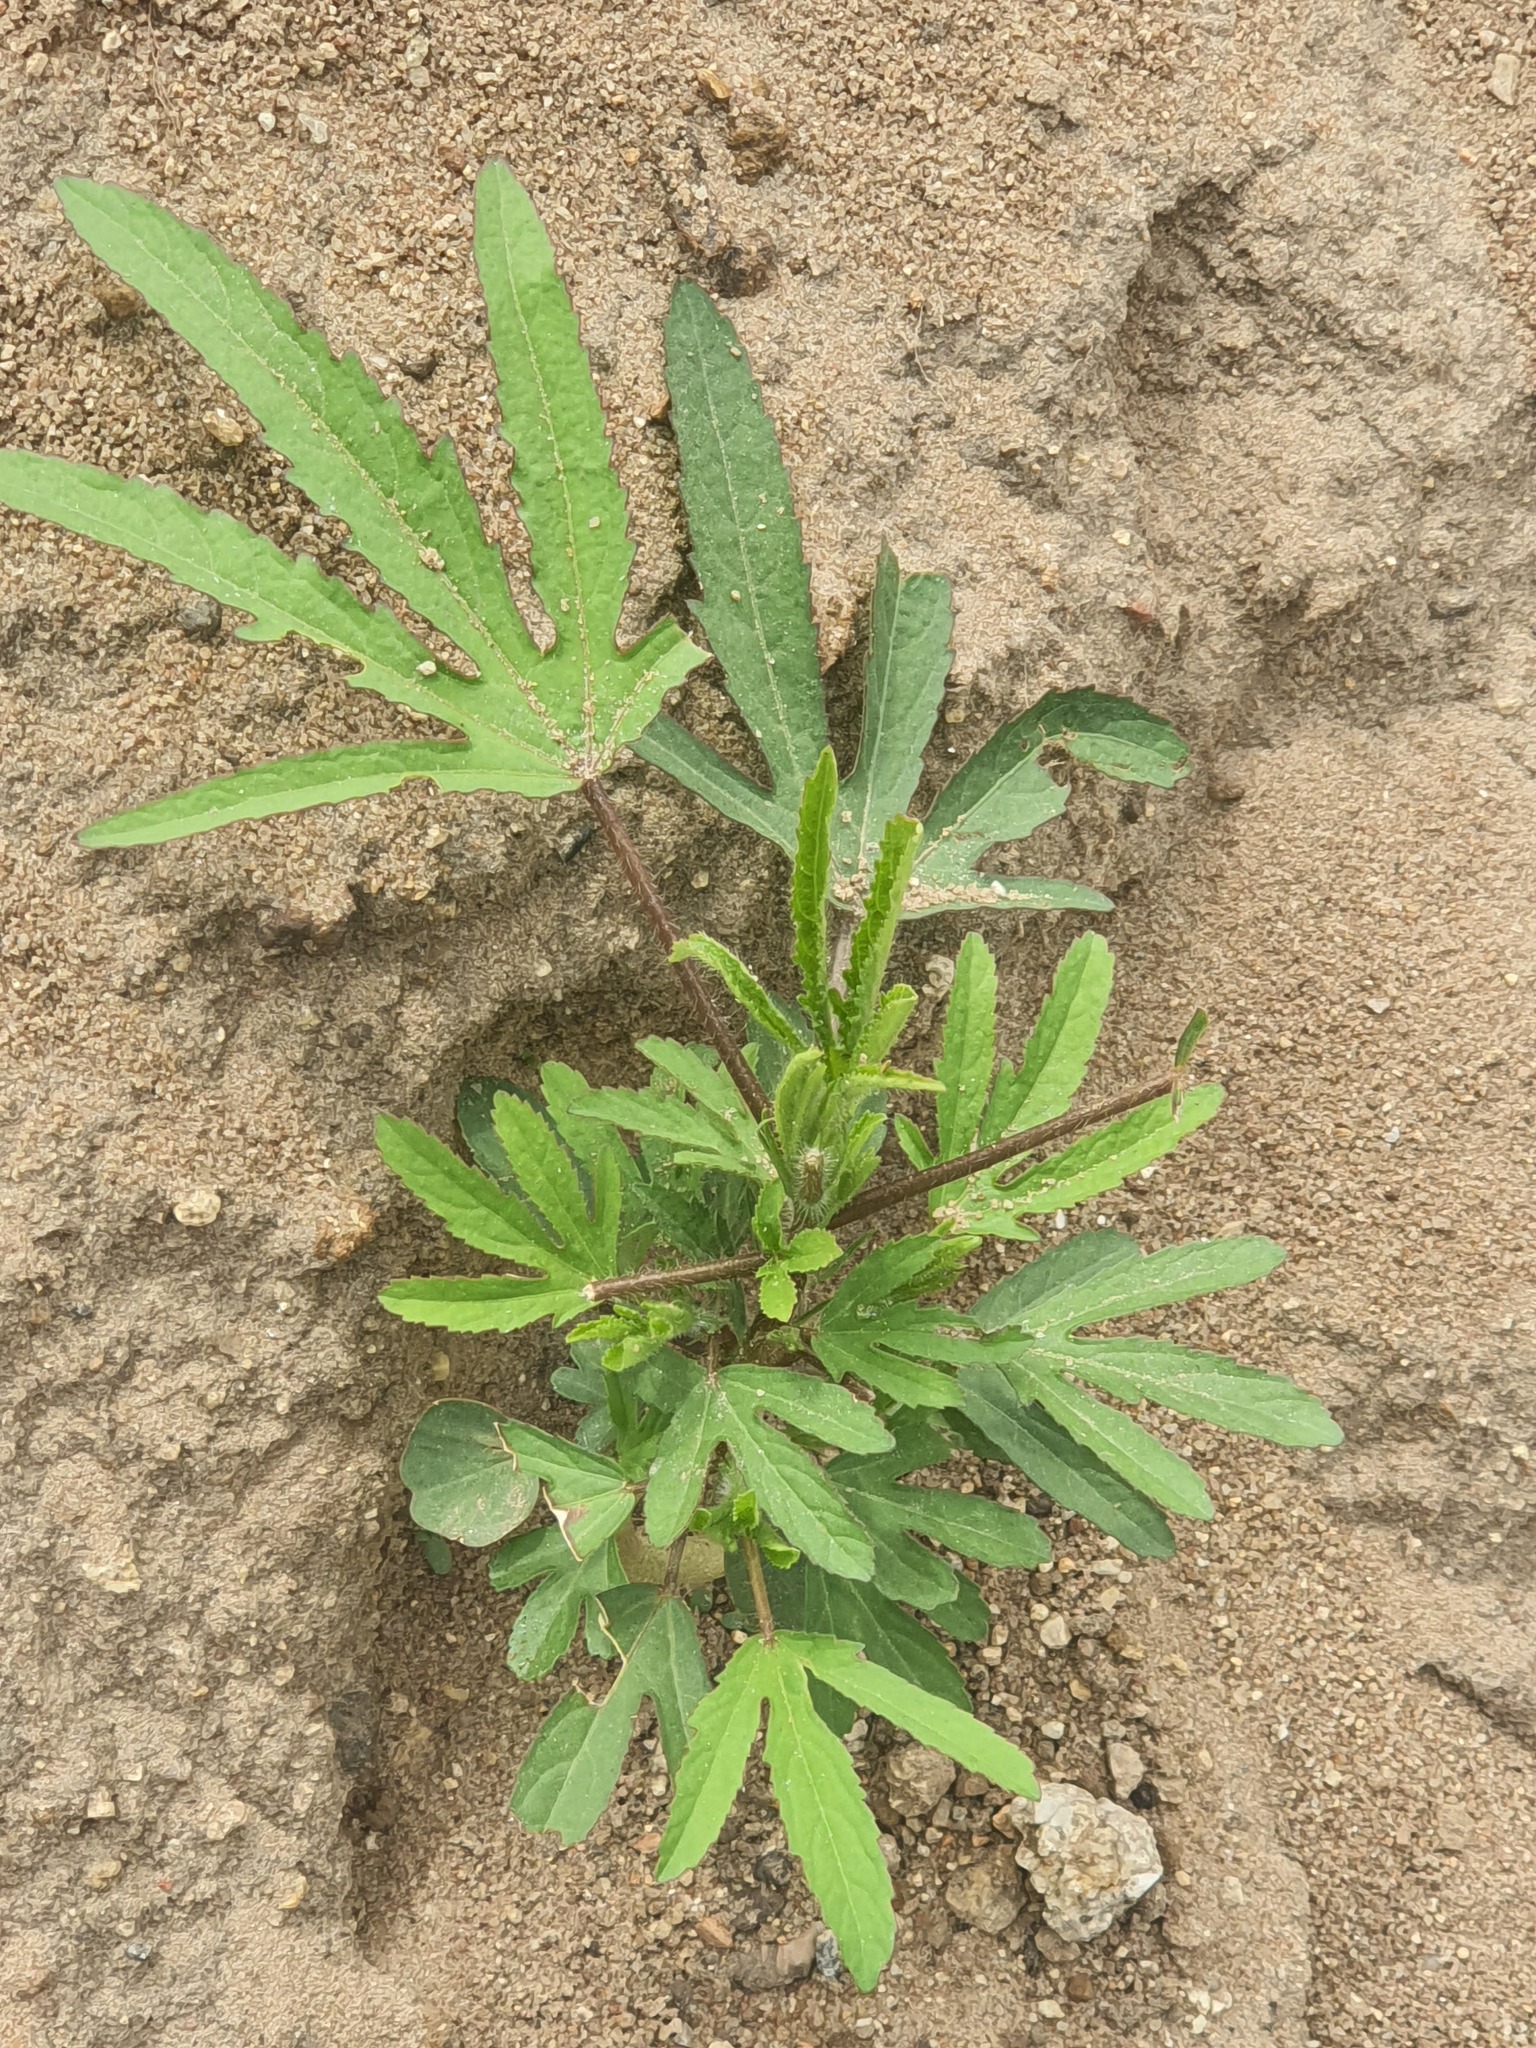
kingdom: Plantae
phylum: Tracheophyta
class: Magnoliopsida
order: Malvales
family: Malvaceae
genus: Hibiscus
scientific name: Hibiscus cannabinus
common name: Brown indianhemp
